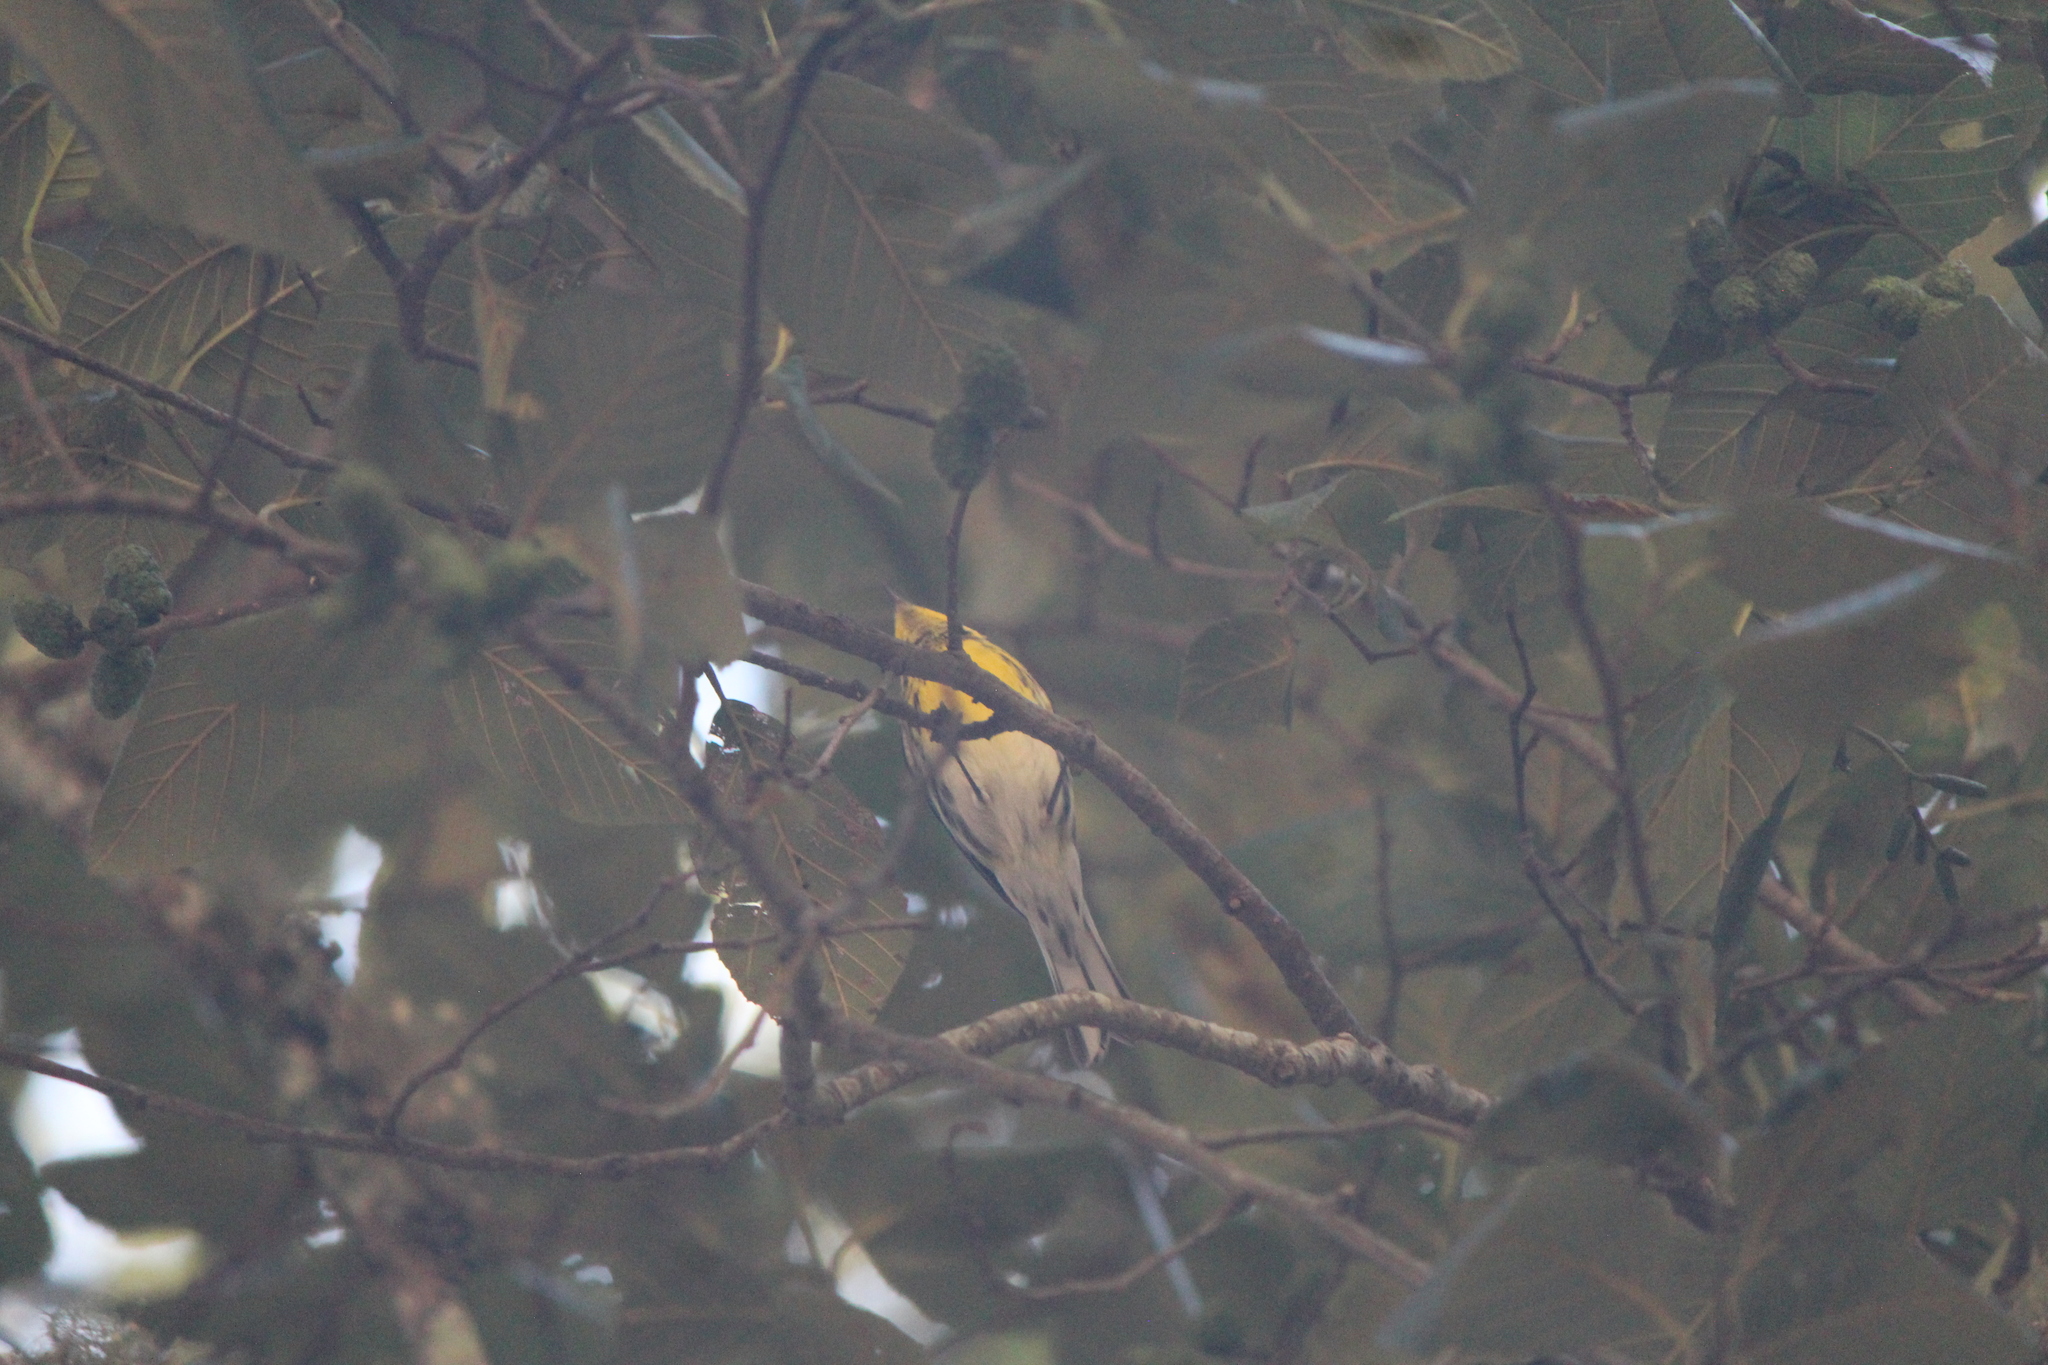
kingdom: Animalia
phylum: Chordata
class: Aves
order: Passeriformes
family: Parulidae
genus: Setophaga
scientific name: Setophaga townsendi
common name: Townsend's warbler
